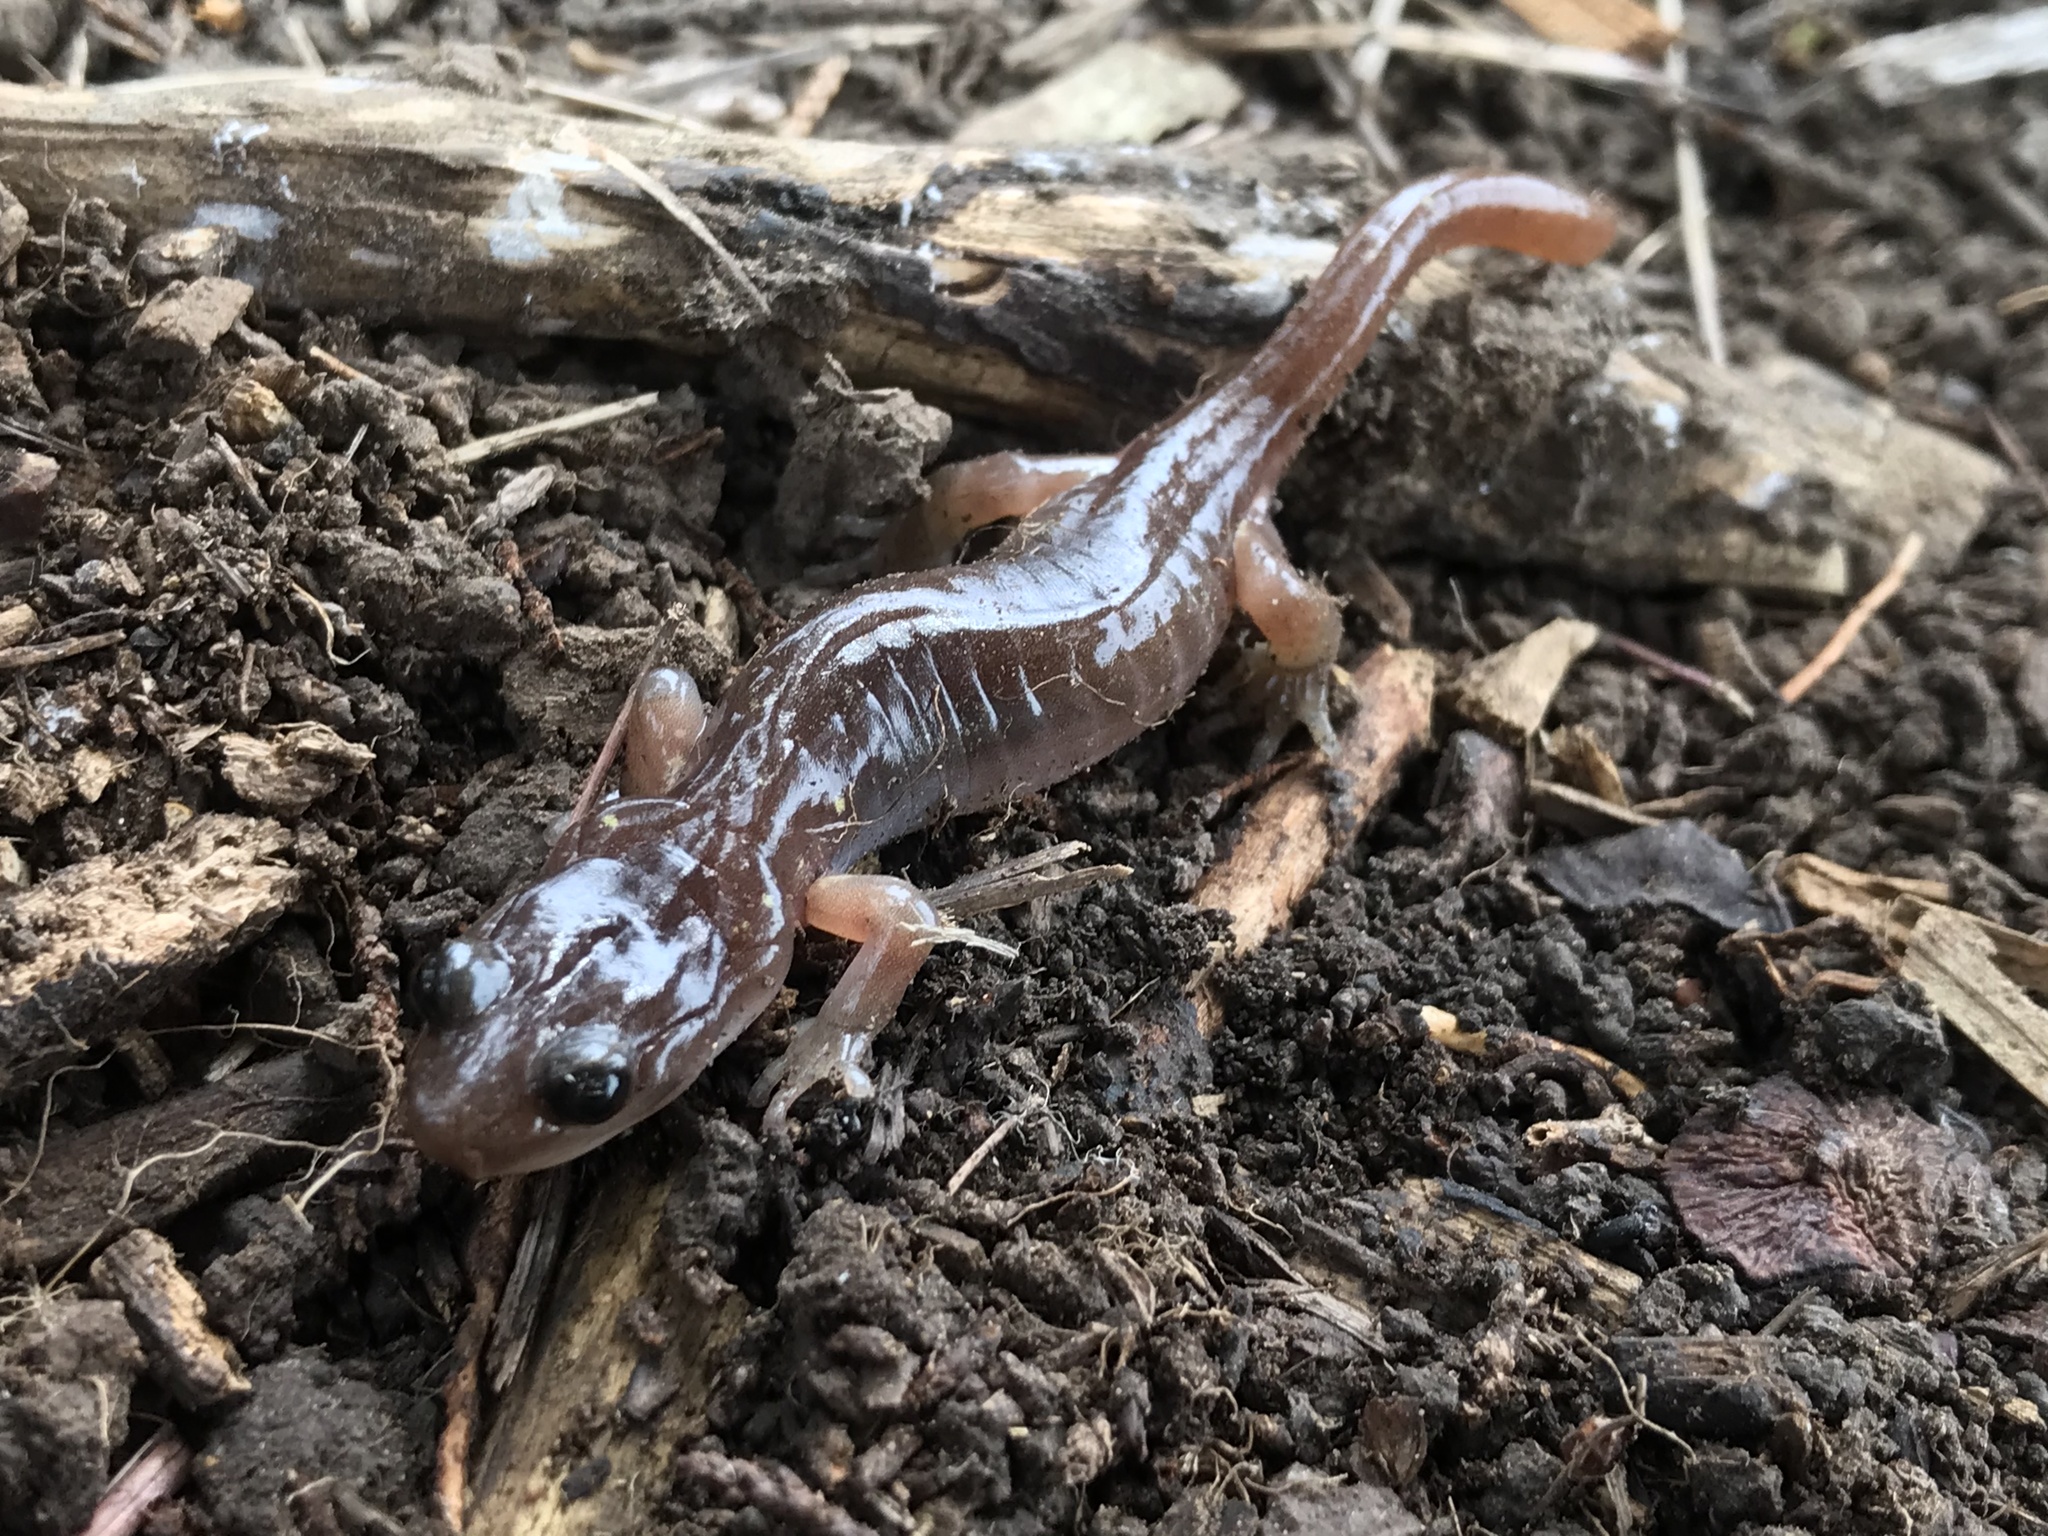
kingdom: Animalia
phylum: Chordata
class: Amphibia
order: Caudata
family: Plethodontidae
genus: Aneides
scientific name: Aneides lugubris
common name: Arboreal salamander
